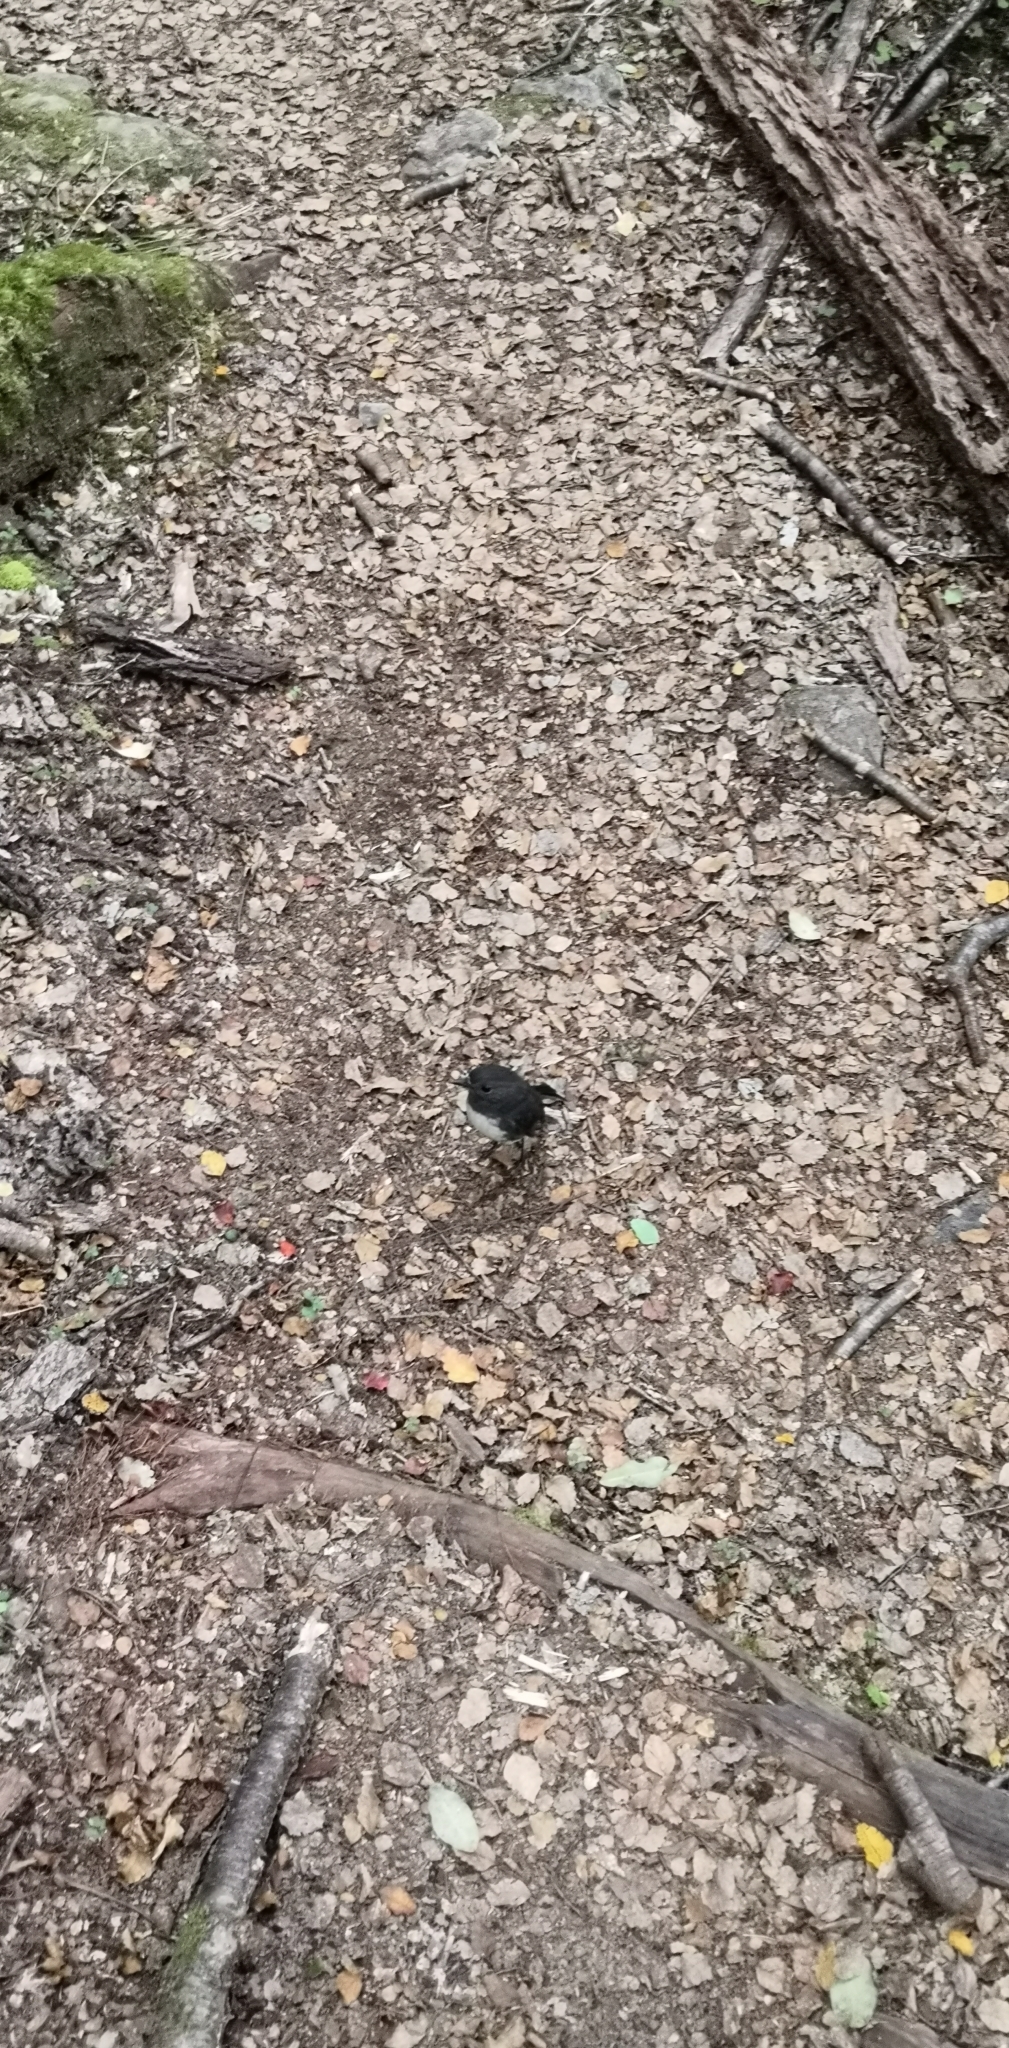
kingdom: Animalia
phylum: Chordata
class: Aves
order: Passeriformes
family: Petroicidae
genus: Petroica
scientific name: Petroica australis
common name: New zealand robin
